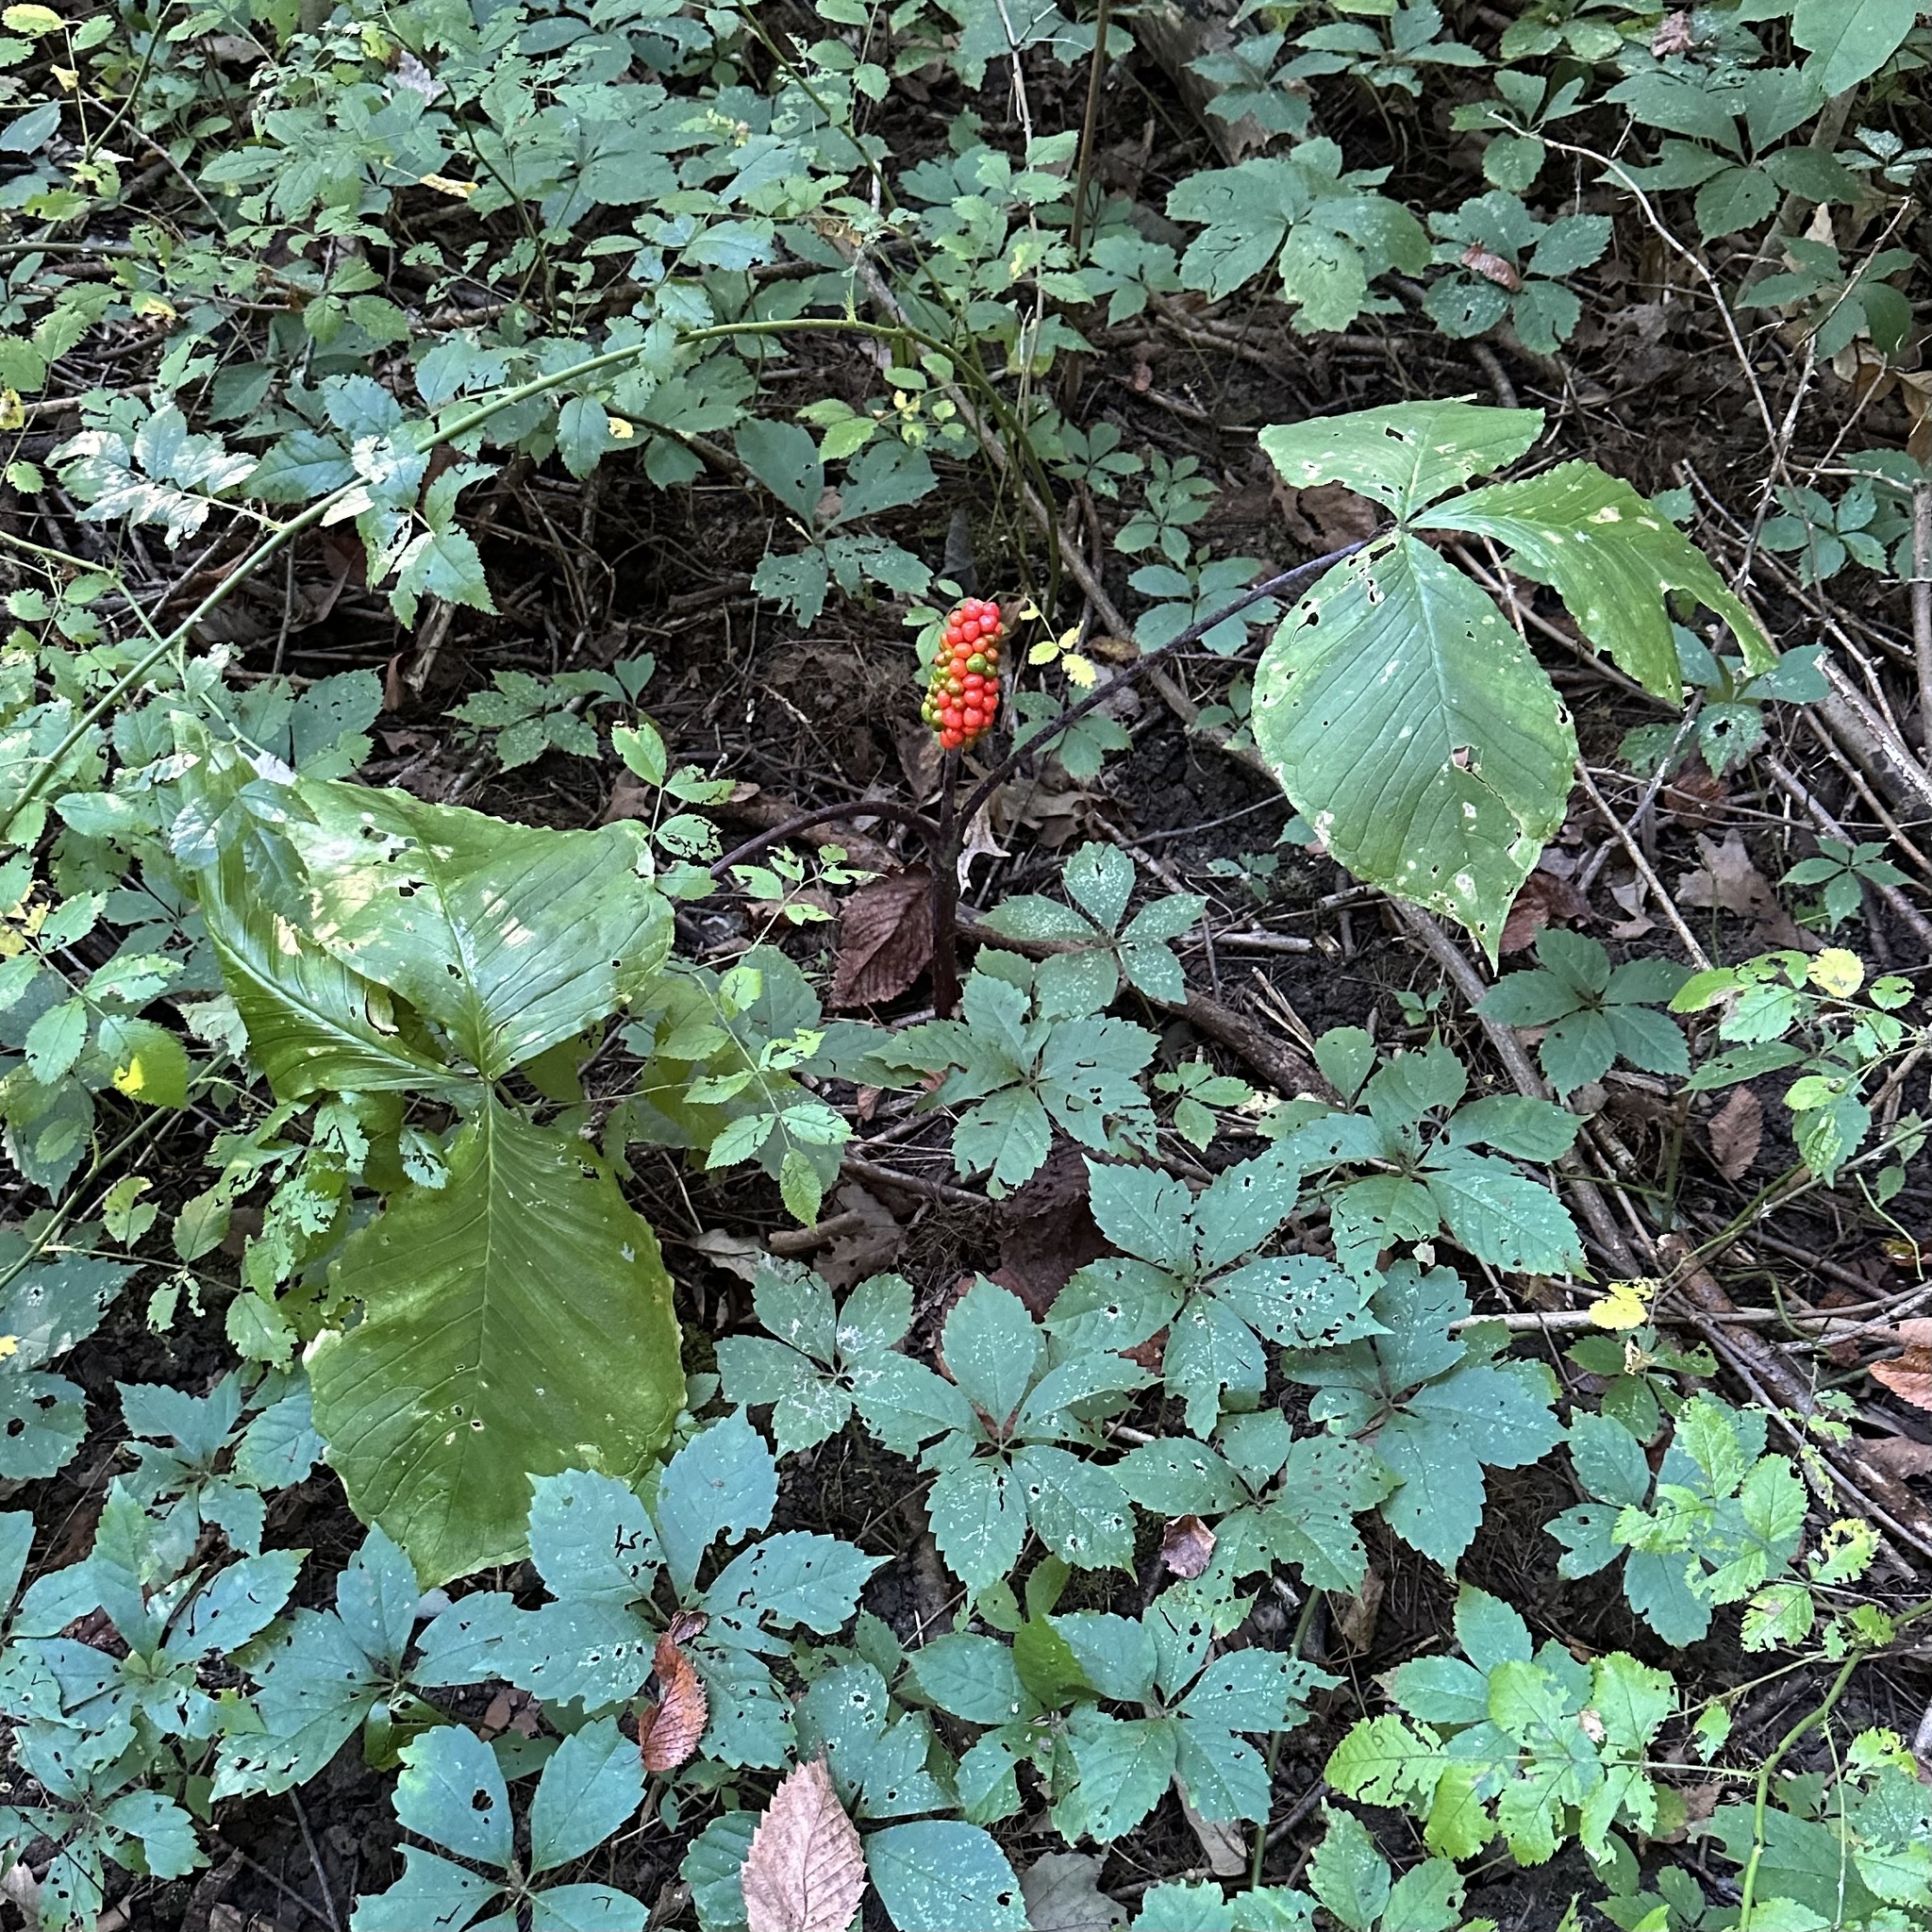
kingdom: Plantae
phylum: Tracheophyta
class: Liliopsida
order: Alismatales
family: Araceae
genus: Arisaema
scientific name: Arisaema triphyllum
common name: Jack-in-the-pulpit
